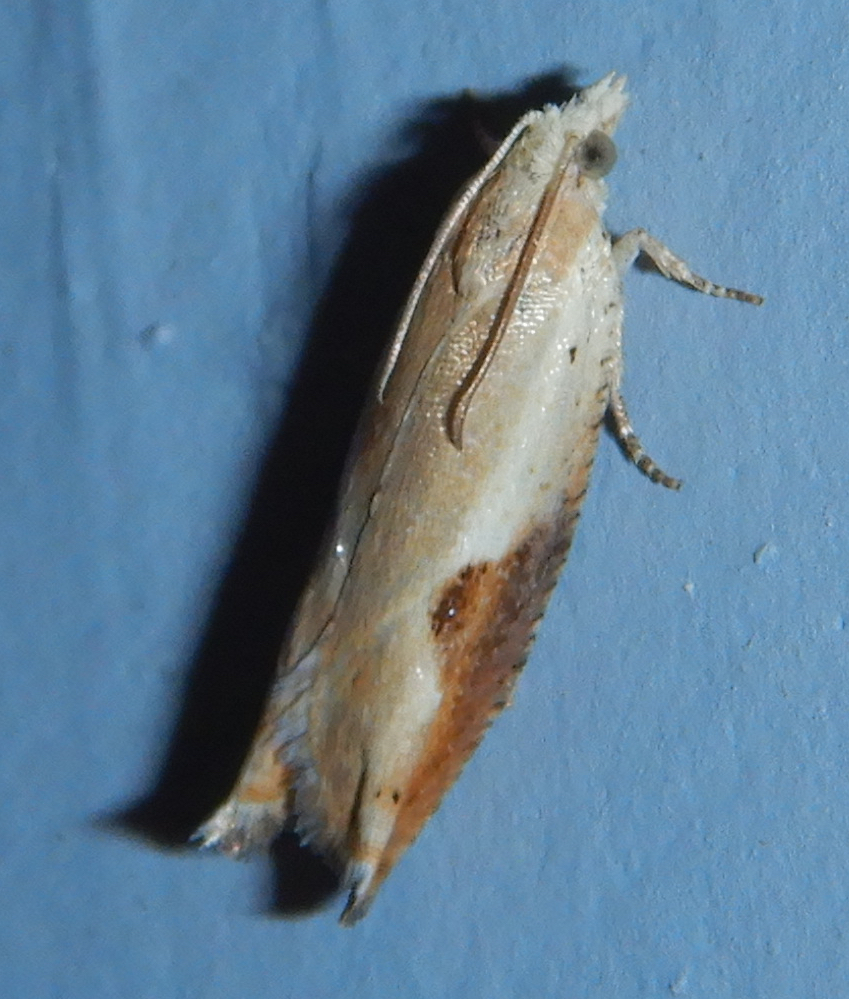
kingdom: Animalia
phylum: Arthropoda
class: Insecta
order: Lepidoptera
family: Tortricidae
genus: Pseudexentera
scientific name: Pseudexentera costomaculana
